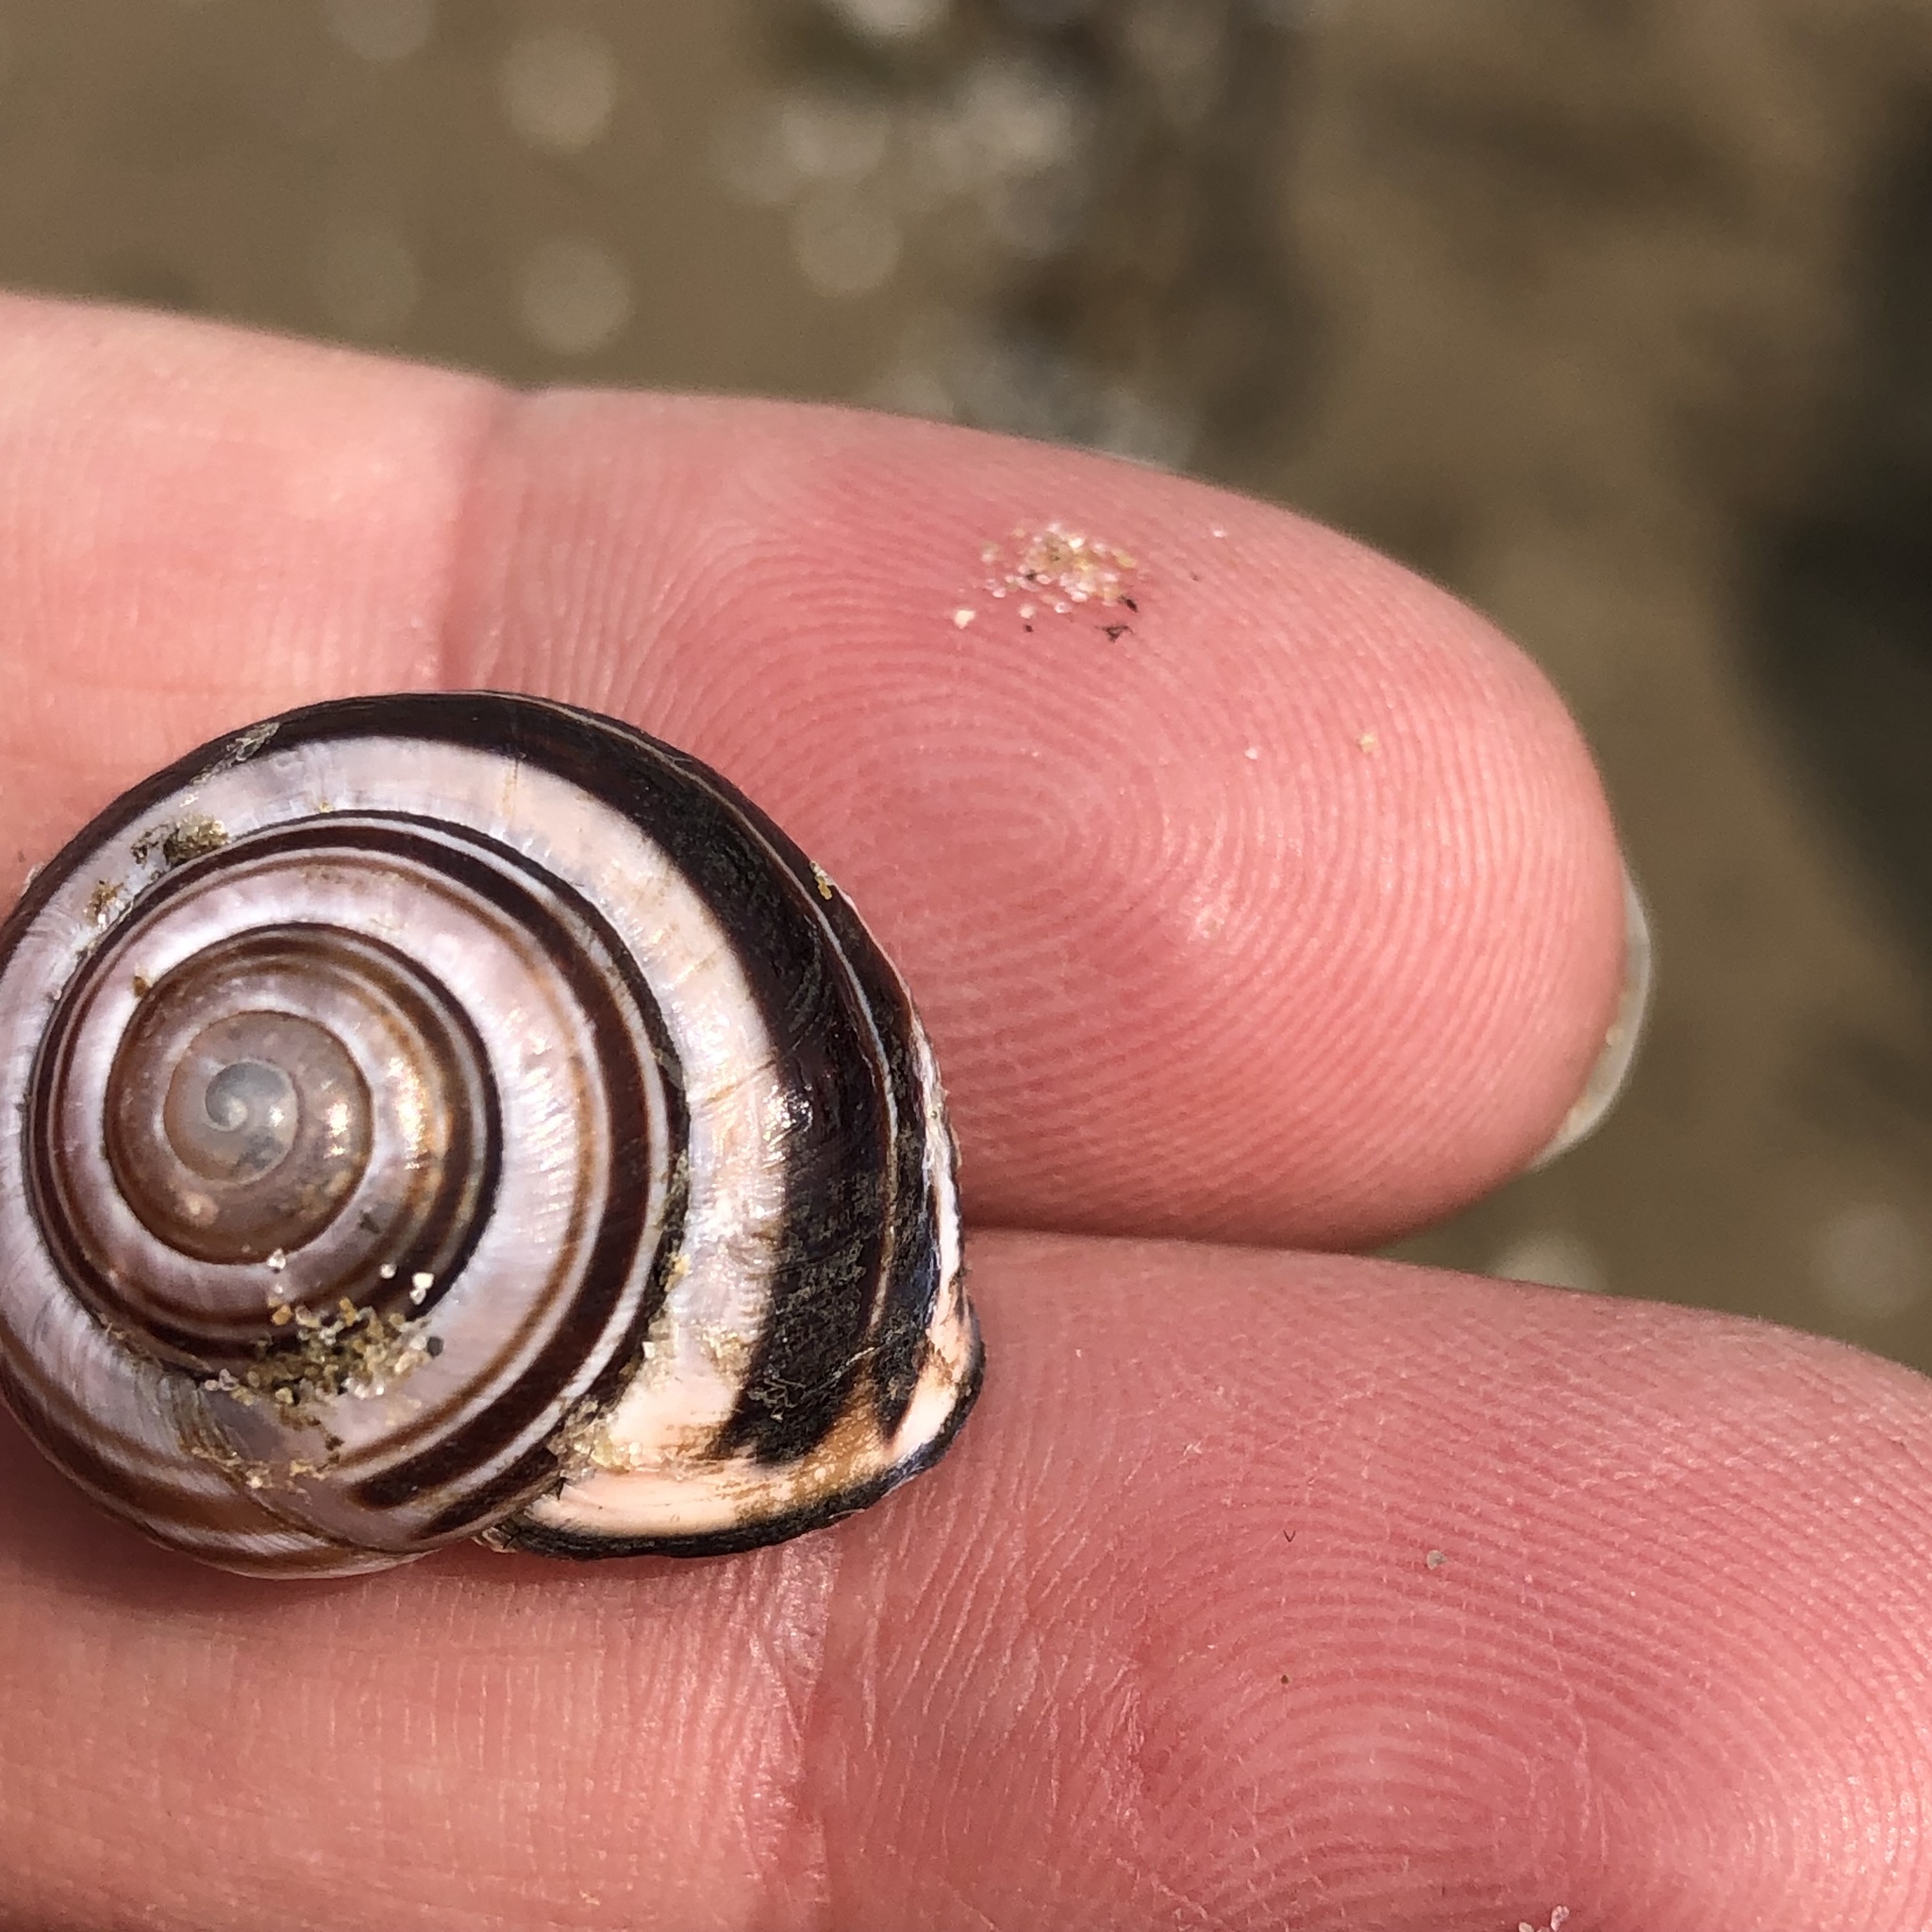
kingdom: Animalia
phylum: Mollusca
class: Gastropoda
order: Stylommatophora
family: Helicidae
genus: Cepaea
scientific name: Cepaea nemoralis
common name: Grovesnail
